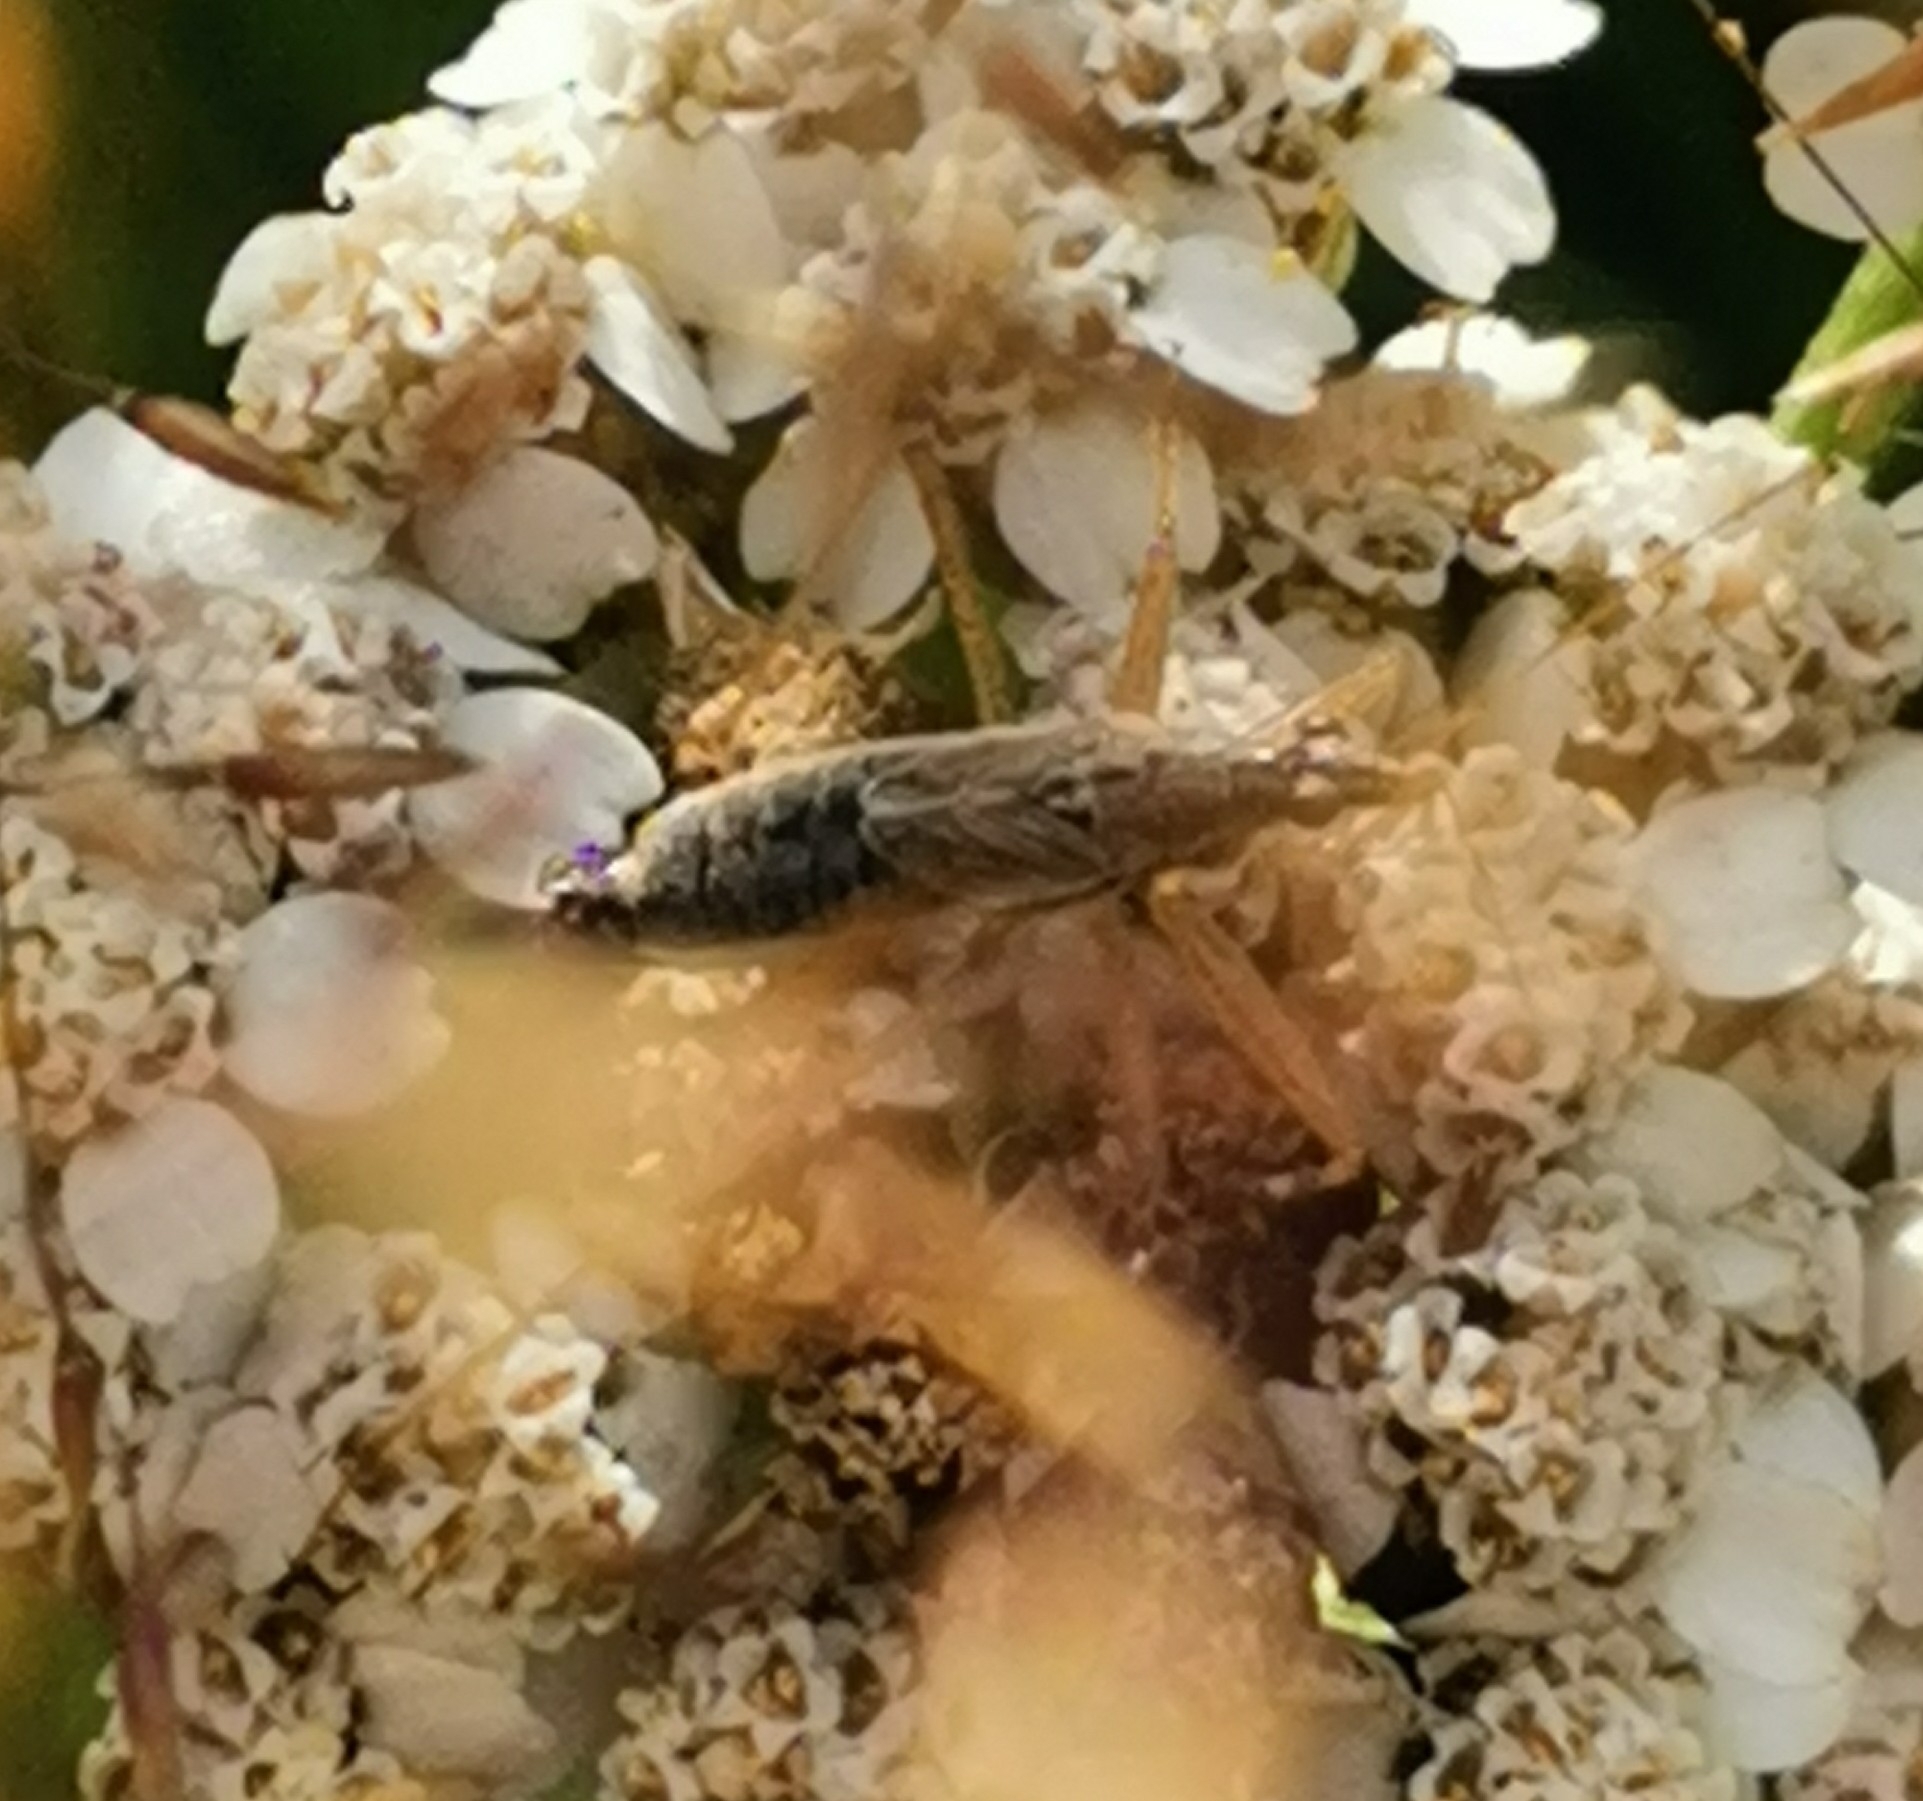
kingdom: Animalia
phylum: Arthropoda
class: Insecta
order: Hemiptera
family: Nabidae
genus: Nabis
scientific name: Nabis flavomarginatus
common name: Broad damselbug
